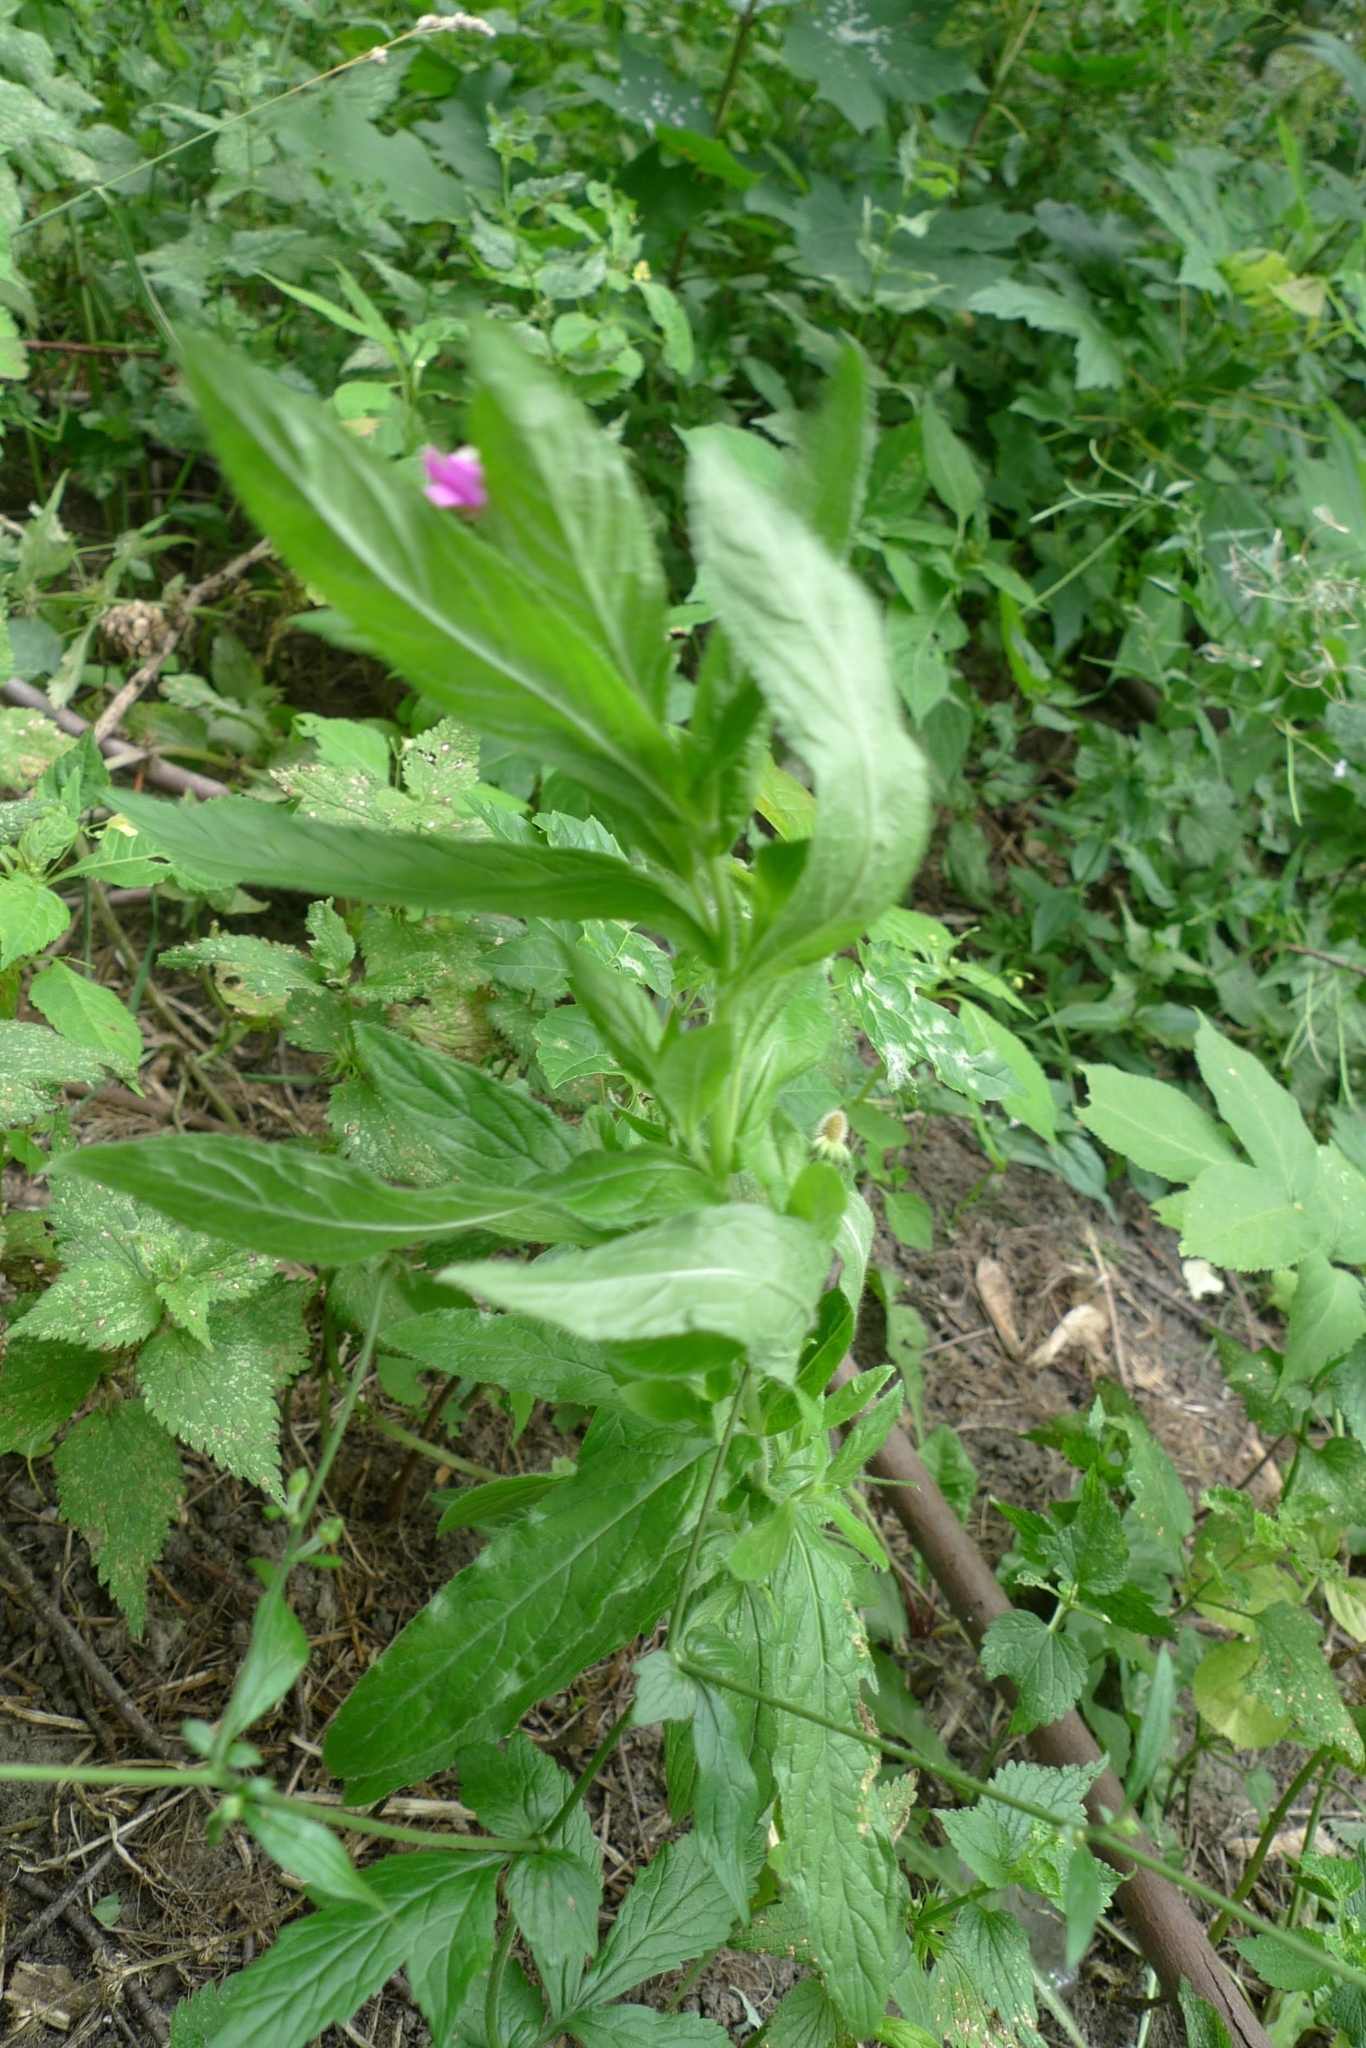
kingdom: Plantae
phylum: Tracheophyta
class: Magnoliopsida
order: Myrtales
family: Onagraceae
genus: Epilobium
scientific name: Epilobium hirsutum
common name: Great willowherb
